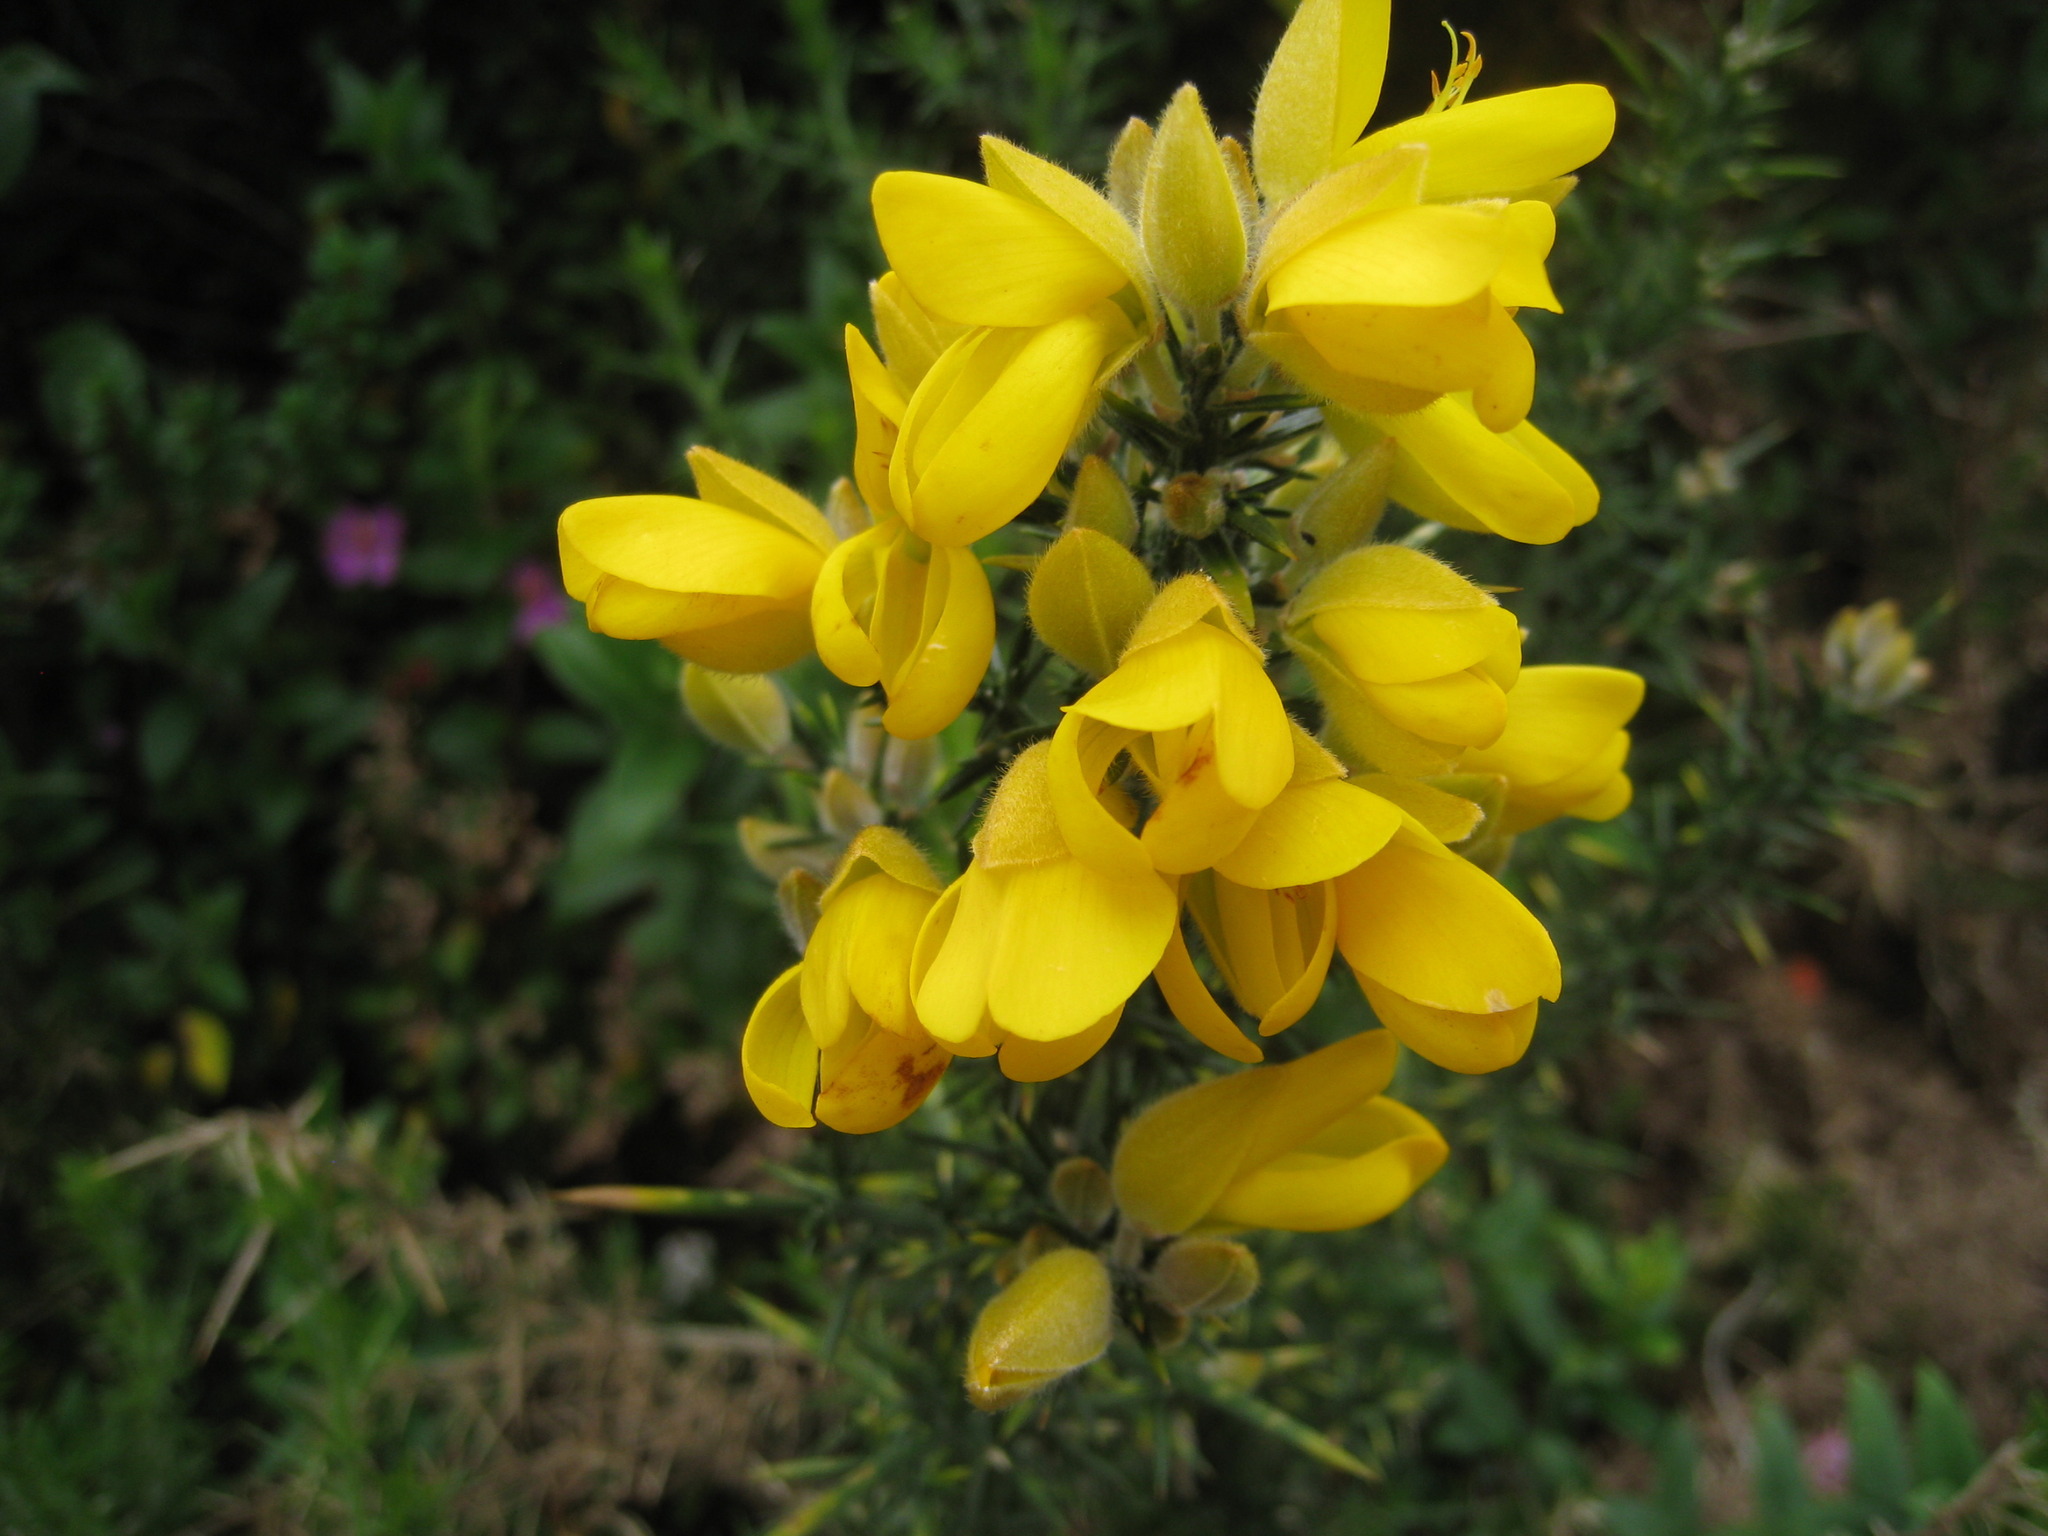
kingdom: Plantae
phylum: Tracheophyta
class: Magnoliopsida
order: Fabales
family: Fabaceae
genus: Ulex
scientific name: Ulex europaeus
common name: Common gorse
